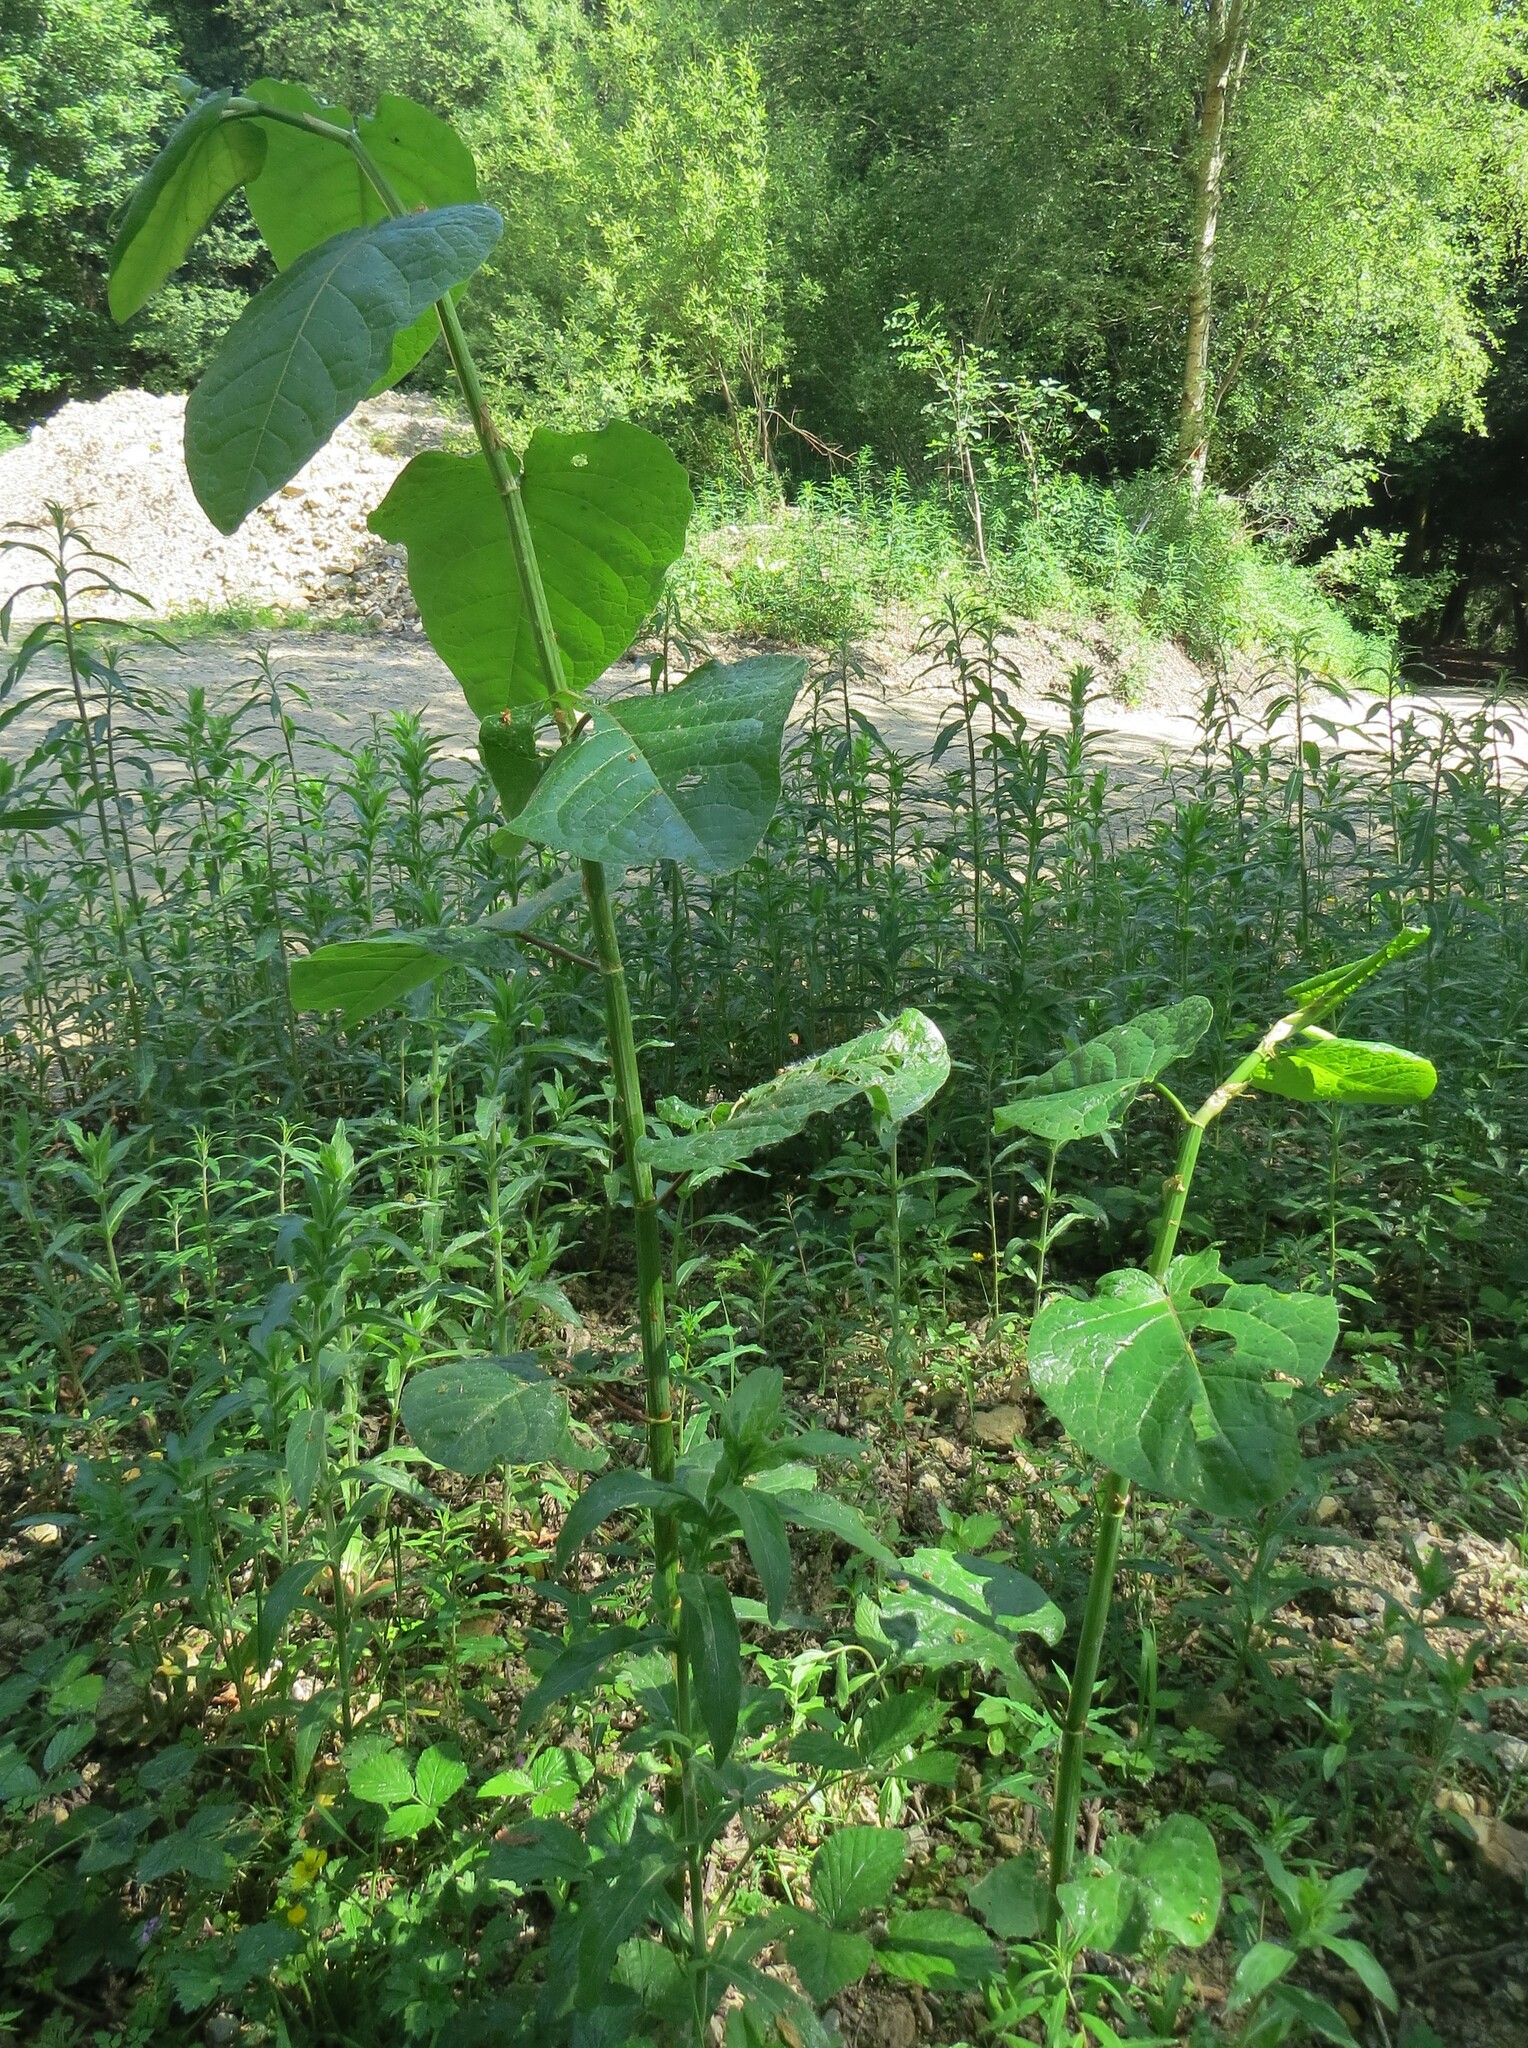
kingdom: Plantae
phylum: Tracheophyta
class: Magnoliopsida
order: Caryophyllales
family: Polygonaceae
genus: Reynoutria
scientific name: Reynoutria sachalinensis
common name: Giant knotweed
